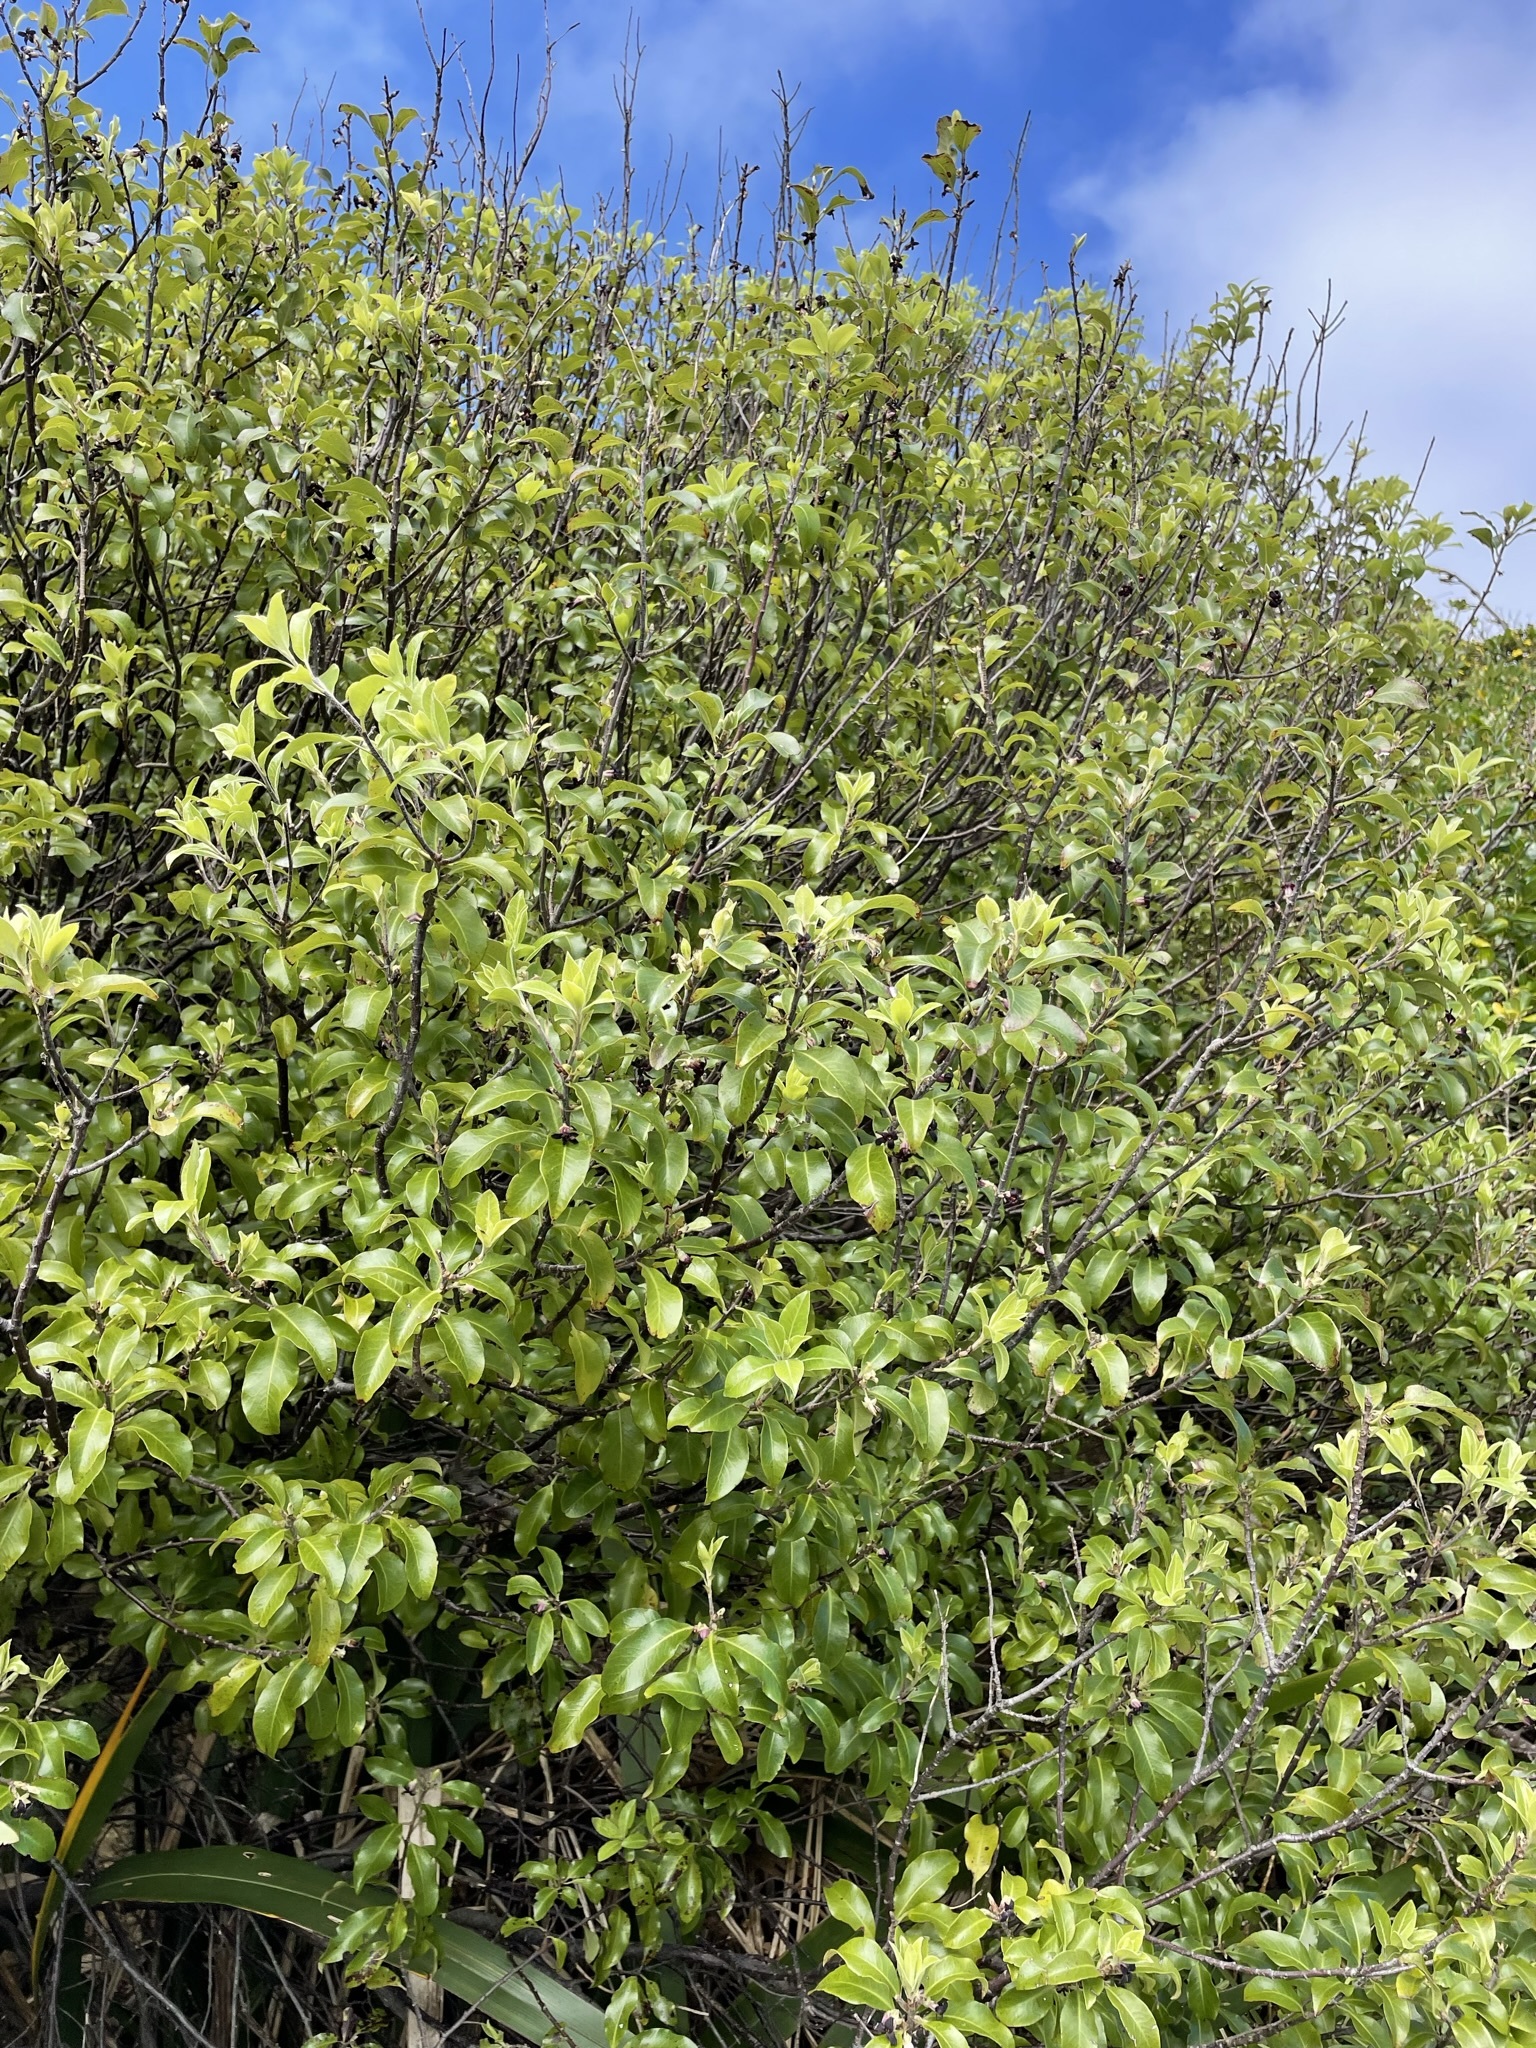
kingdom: Plantae
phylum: Tracheophyta
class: Magnoliopsida
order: Apiales
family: Pittosporaceae
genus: Pittosporum
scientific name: Pittosporum tenuifolium
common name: Kohuhu
